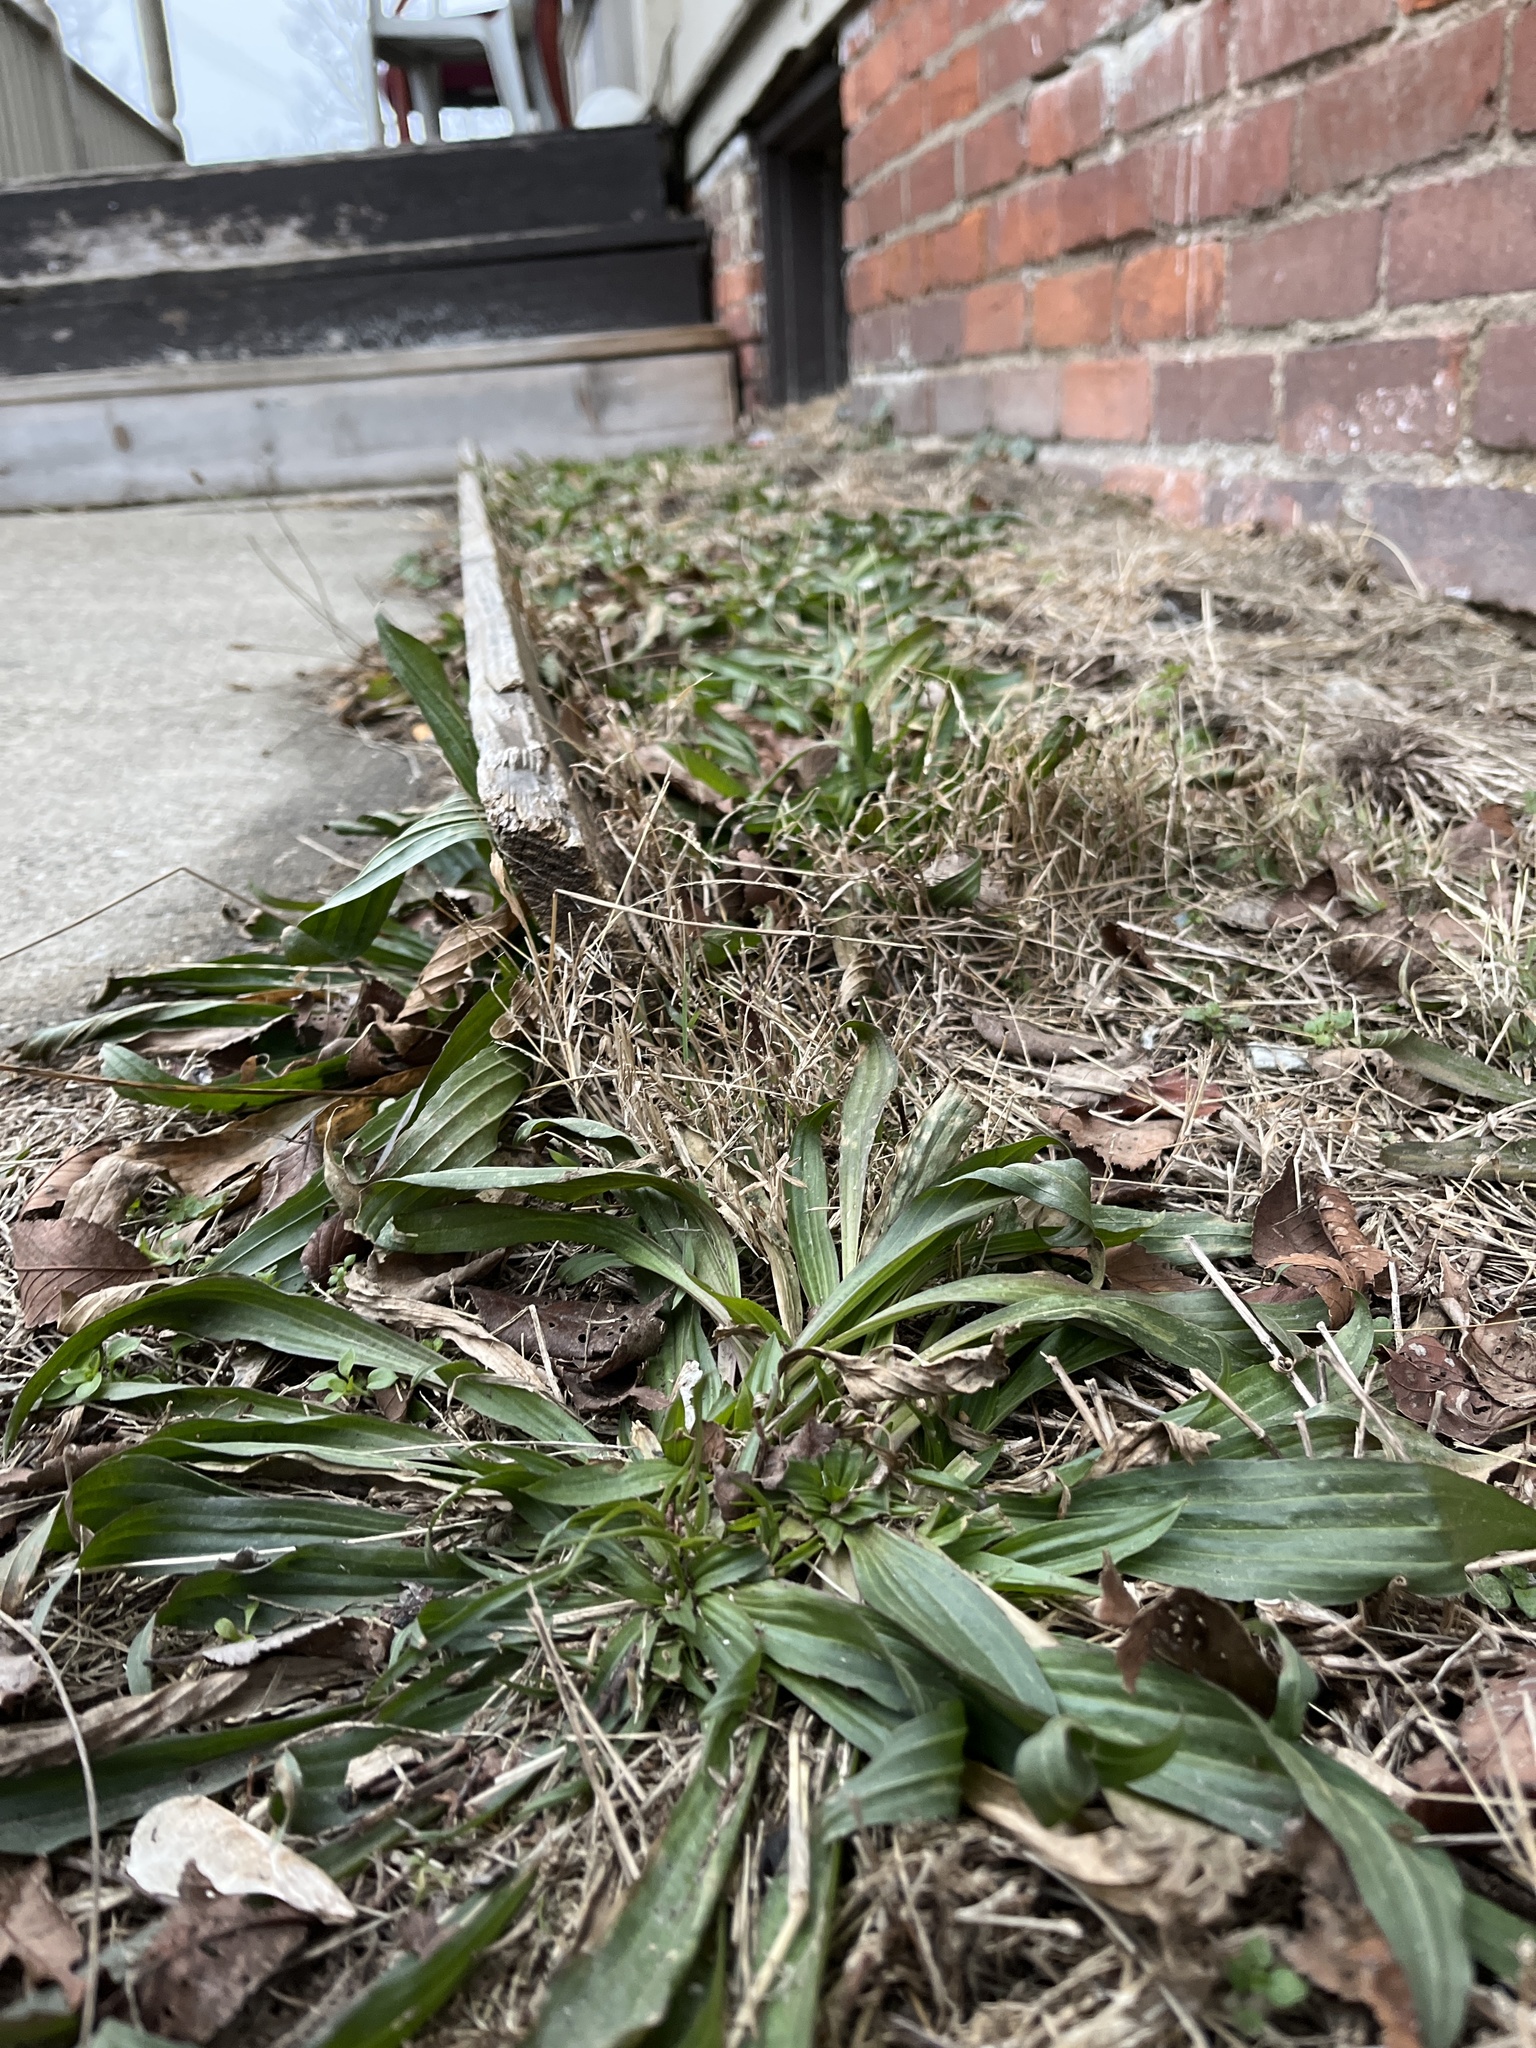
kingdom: Plantae
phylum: Tracheophyta
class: Magnoliopsida
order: Lamiales
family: Plantaginaceae
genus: Plantago
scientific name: Plantago lanceolata
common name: Ribwort plantain
